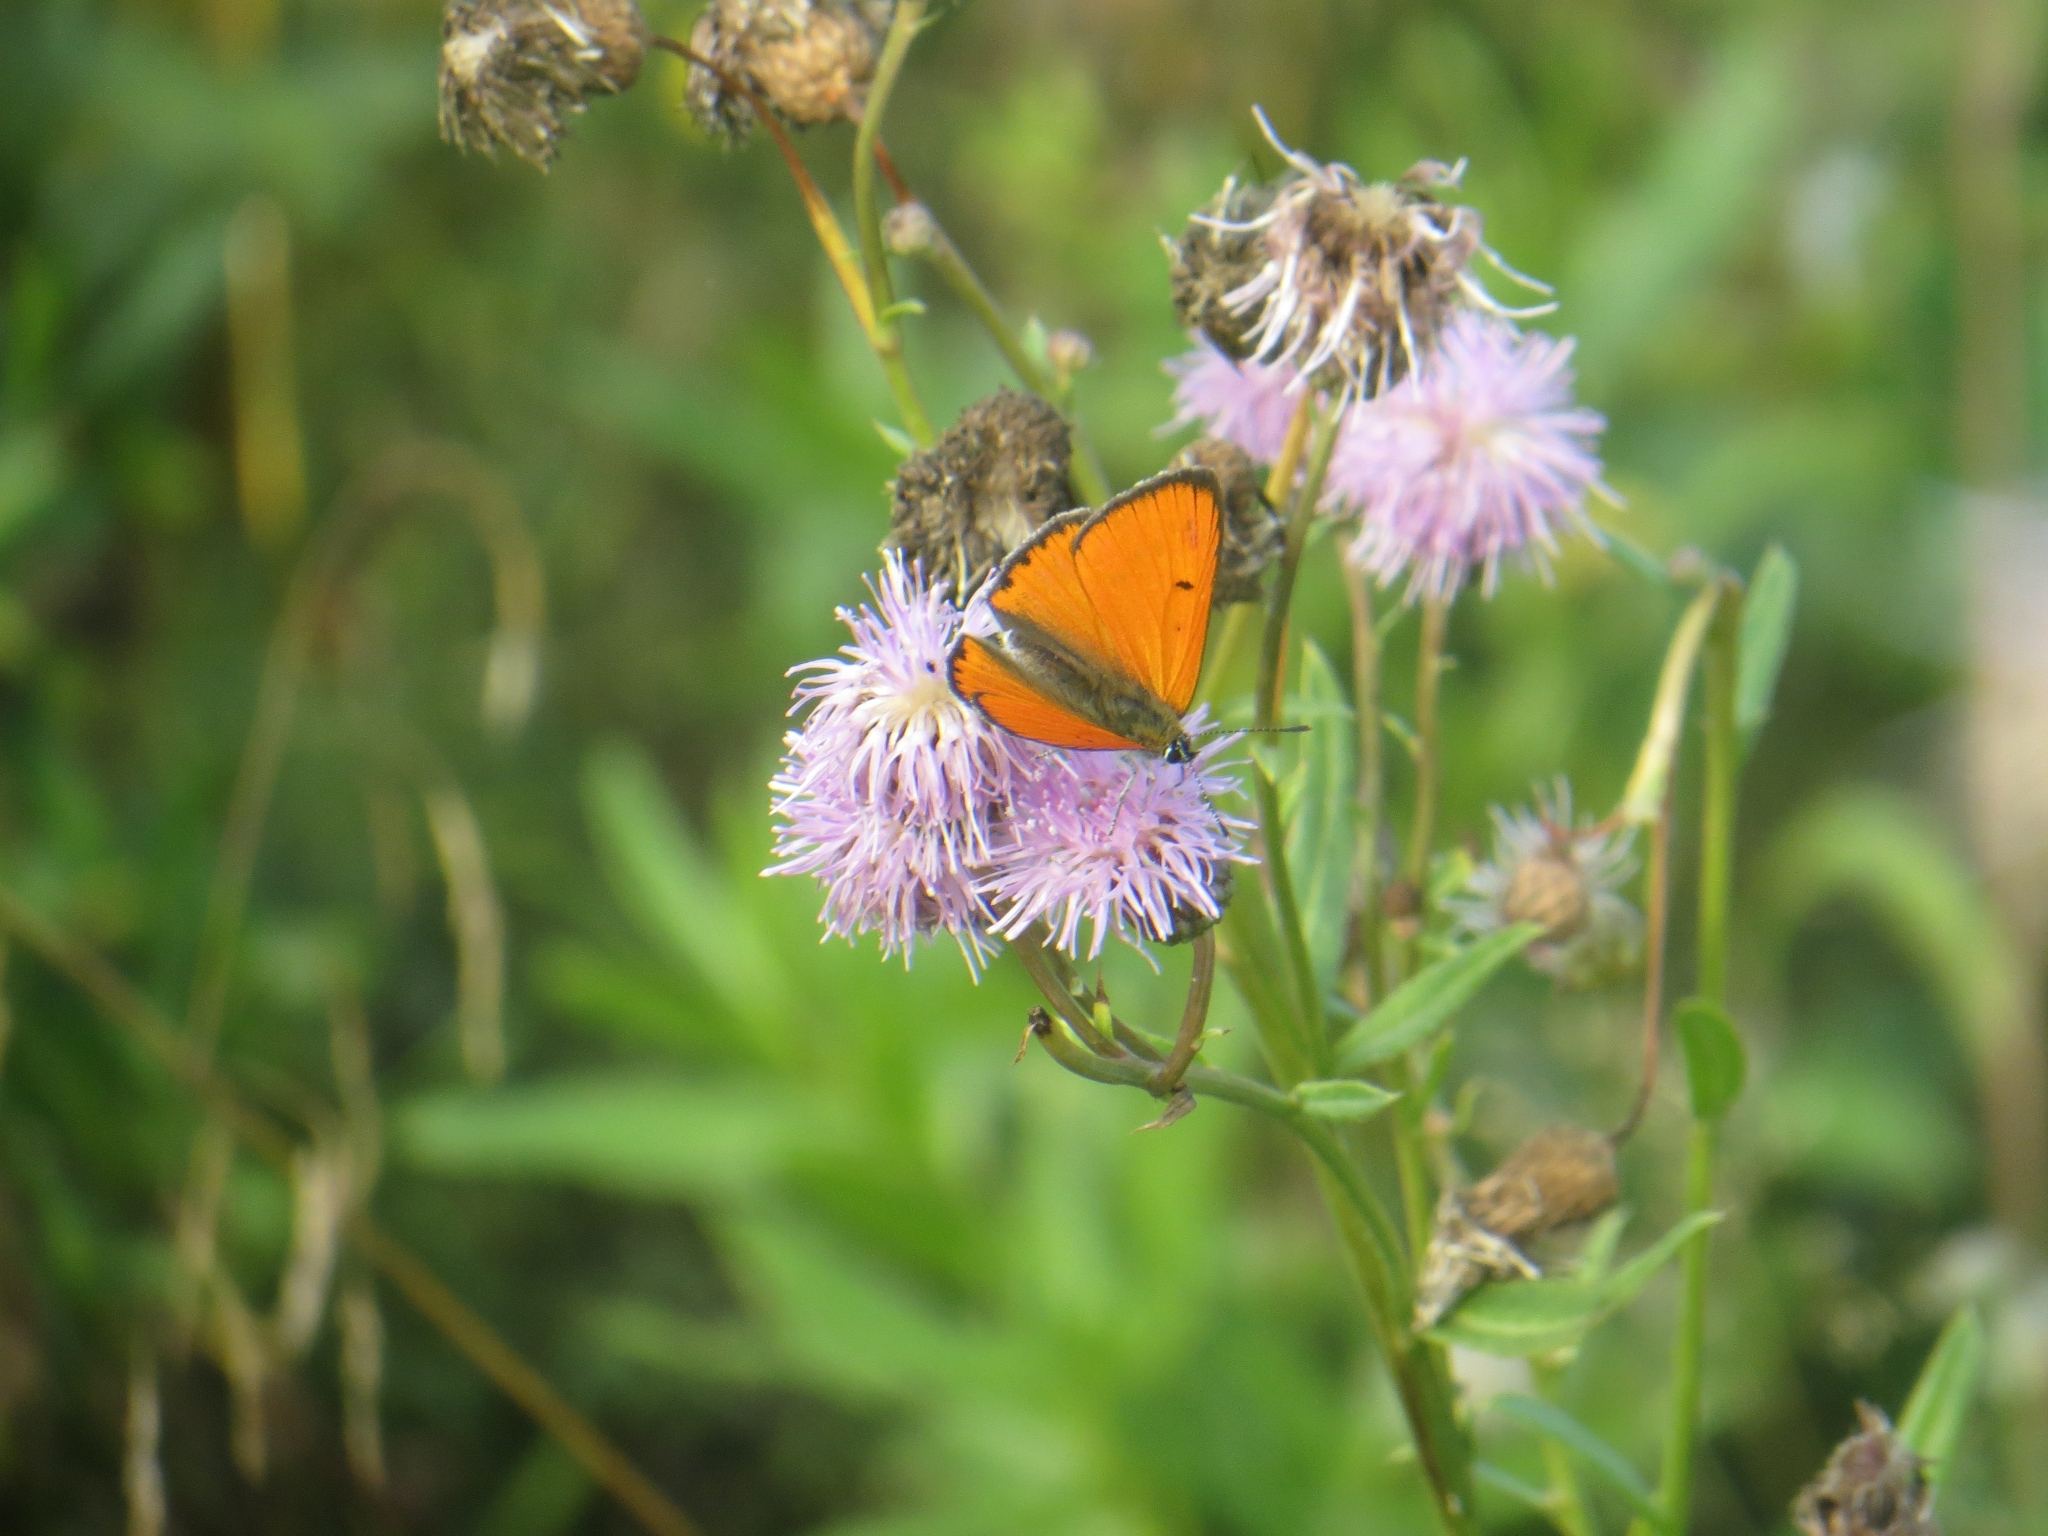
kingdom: Animalia
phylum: Arthropoda
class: Insecta
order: Lepidoptera
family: Lycaenidae
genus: Lycaena
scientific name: Lycaena dispar
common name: Large copper
